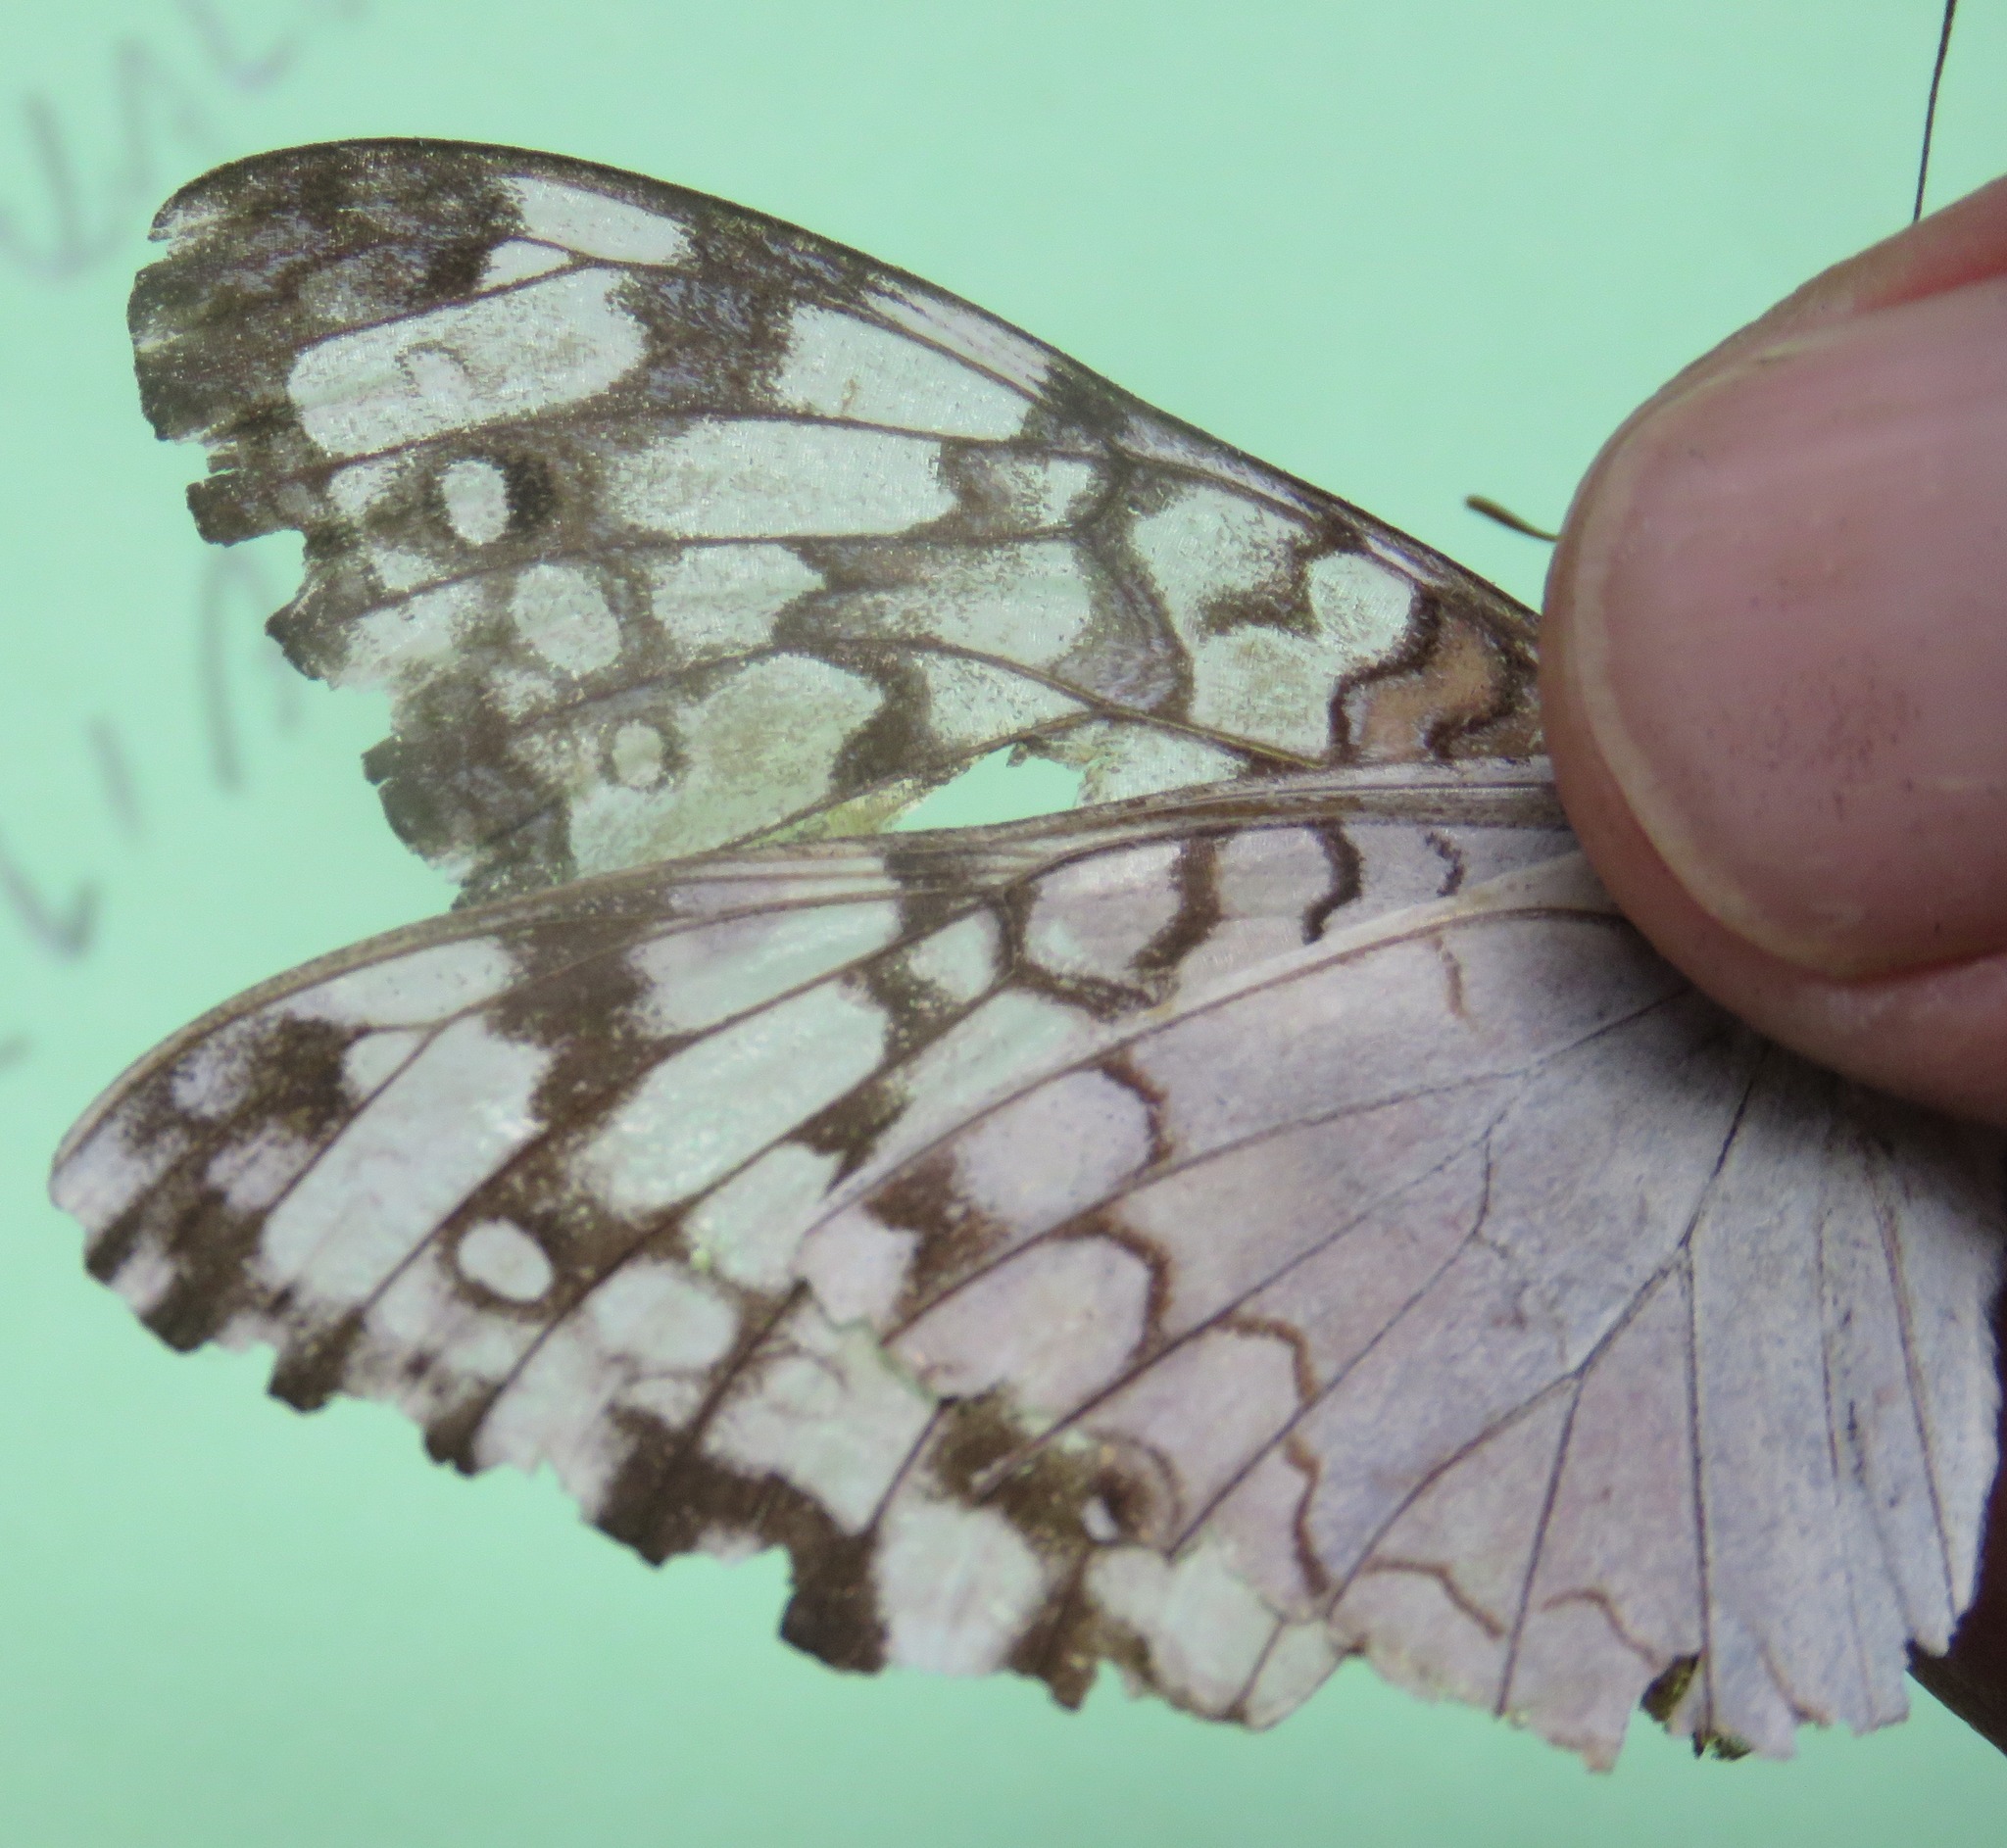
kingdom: Animalia
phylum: Arthropoda
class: Insecta
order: Lepidoptera
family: Nymphalidae
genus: Hamadryas
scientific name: Hamadryas februa
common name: Gray cracker
